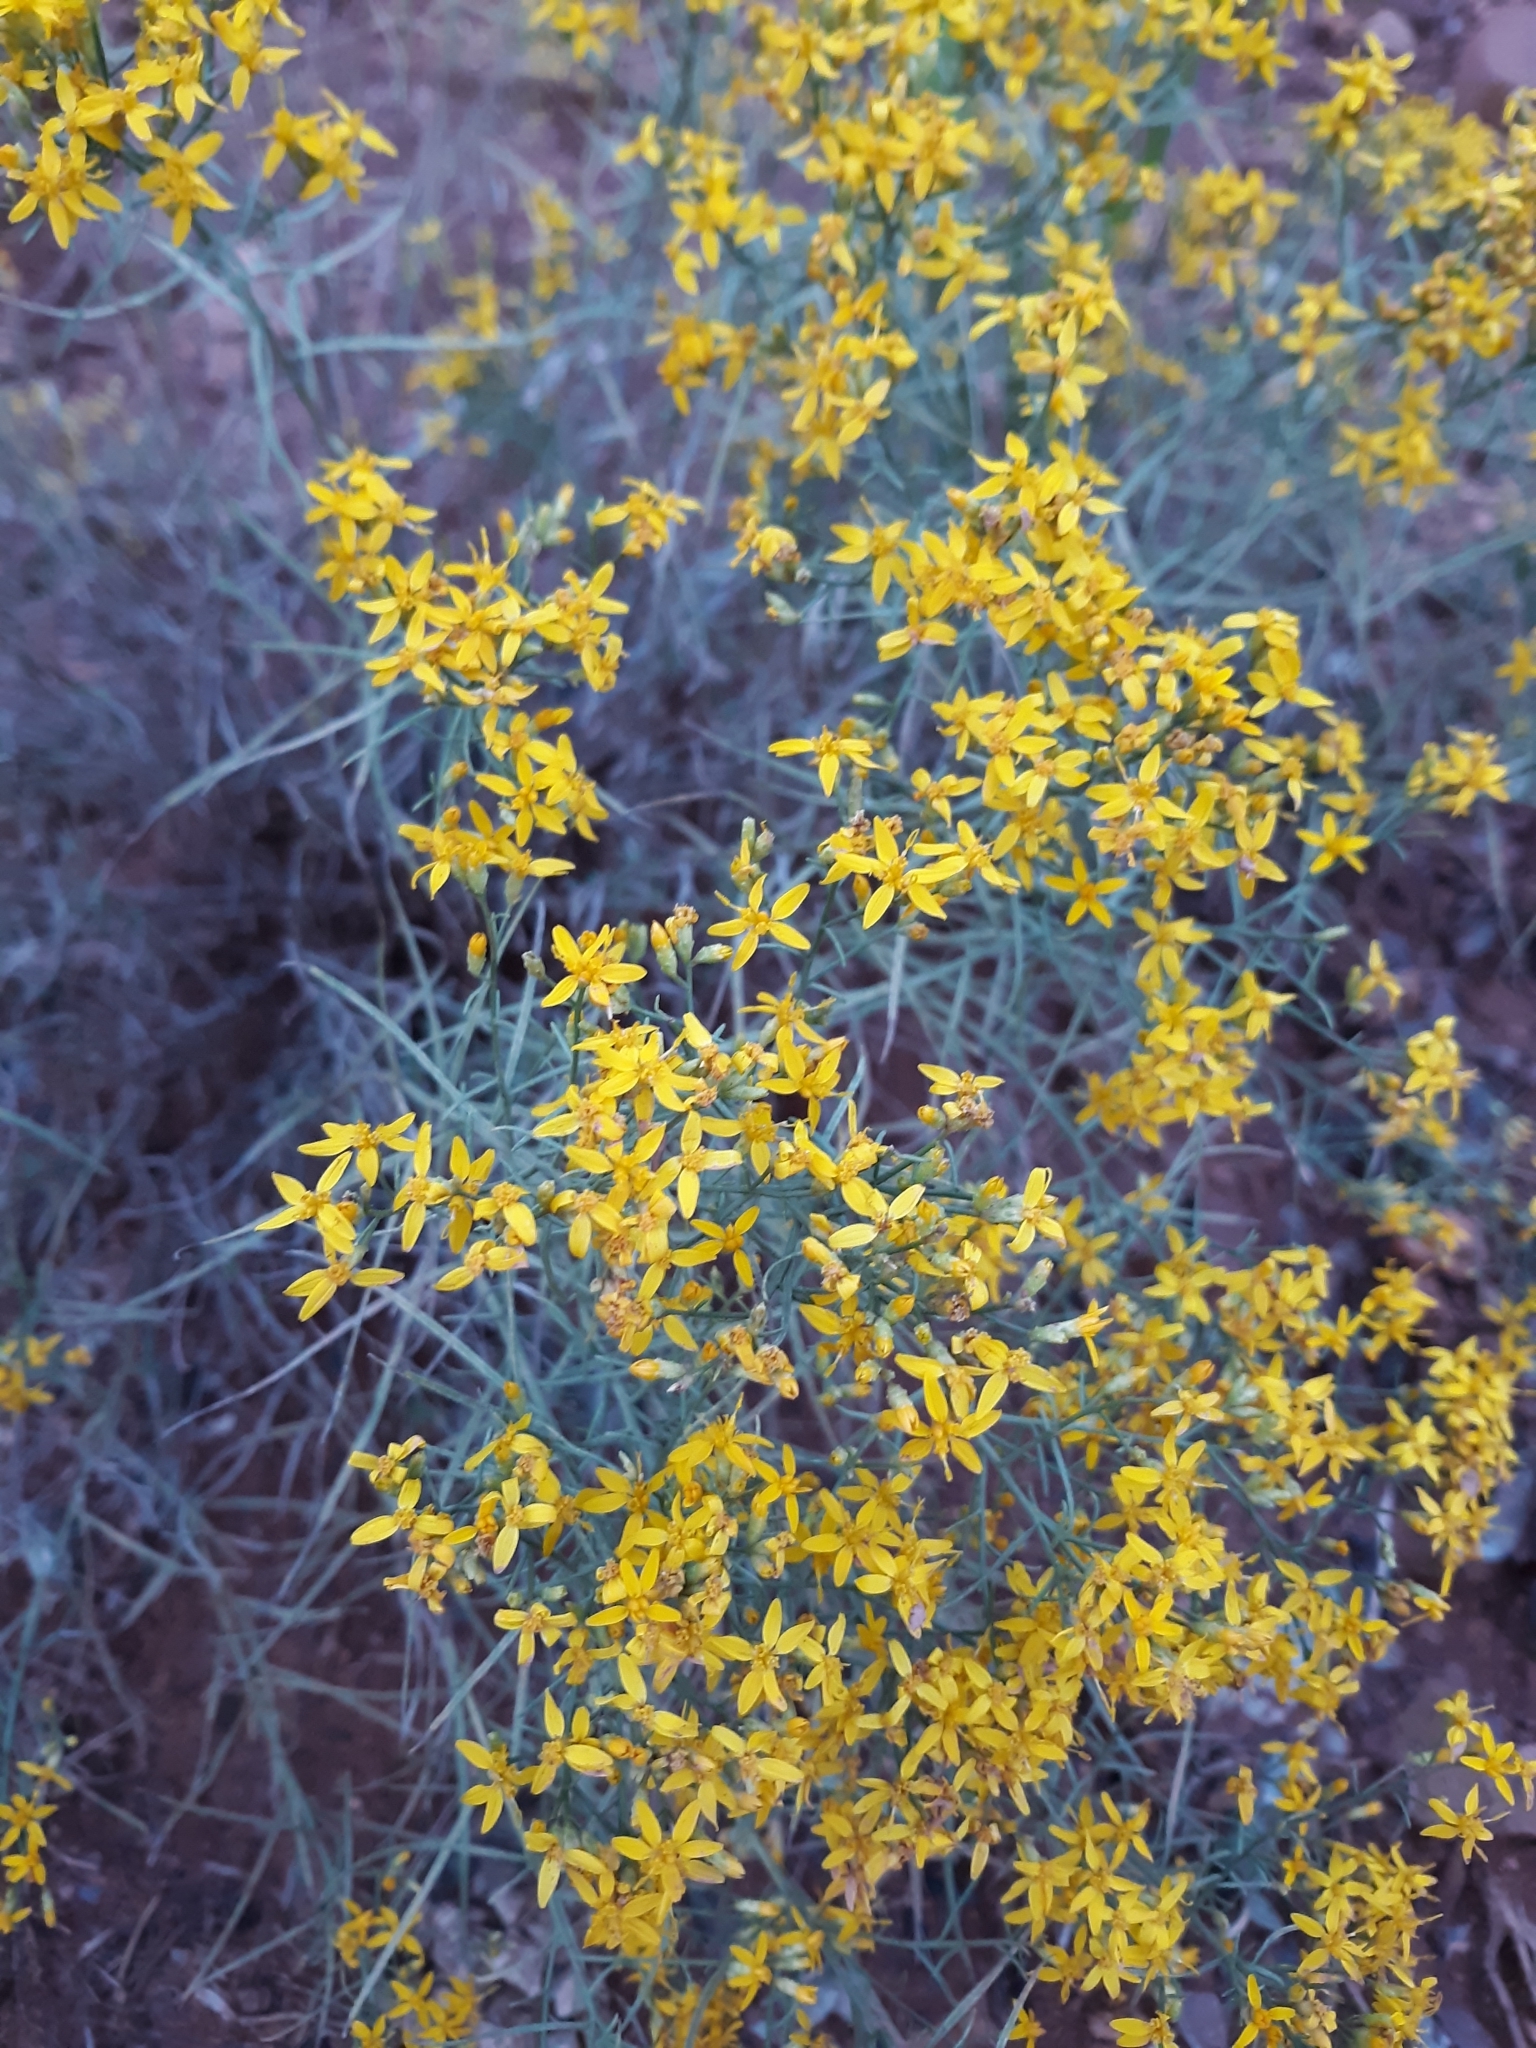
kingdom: Plantae
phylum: Tracheophyta
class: Magnoliopsida
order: Asterales
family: Asteraceae
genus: Gutierrezia
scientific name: Gutierrezia sarothrae
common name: Broom snakeweed
